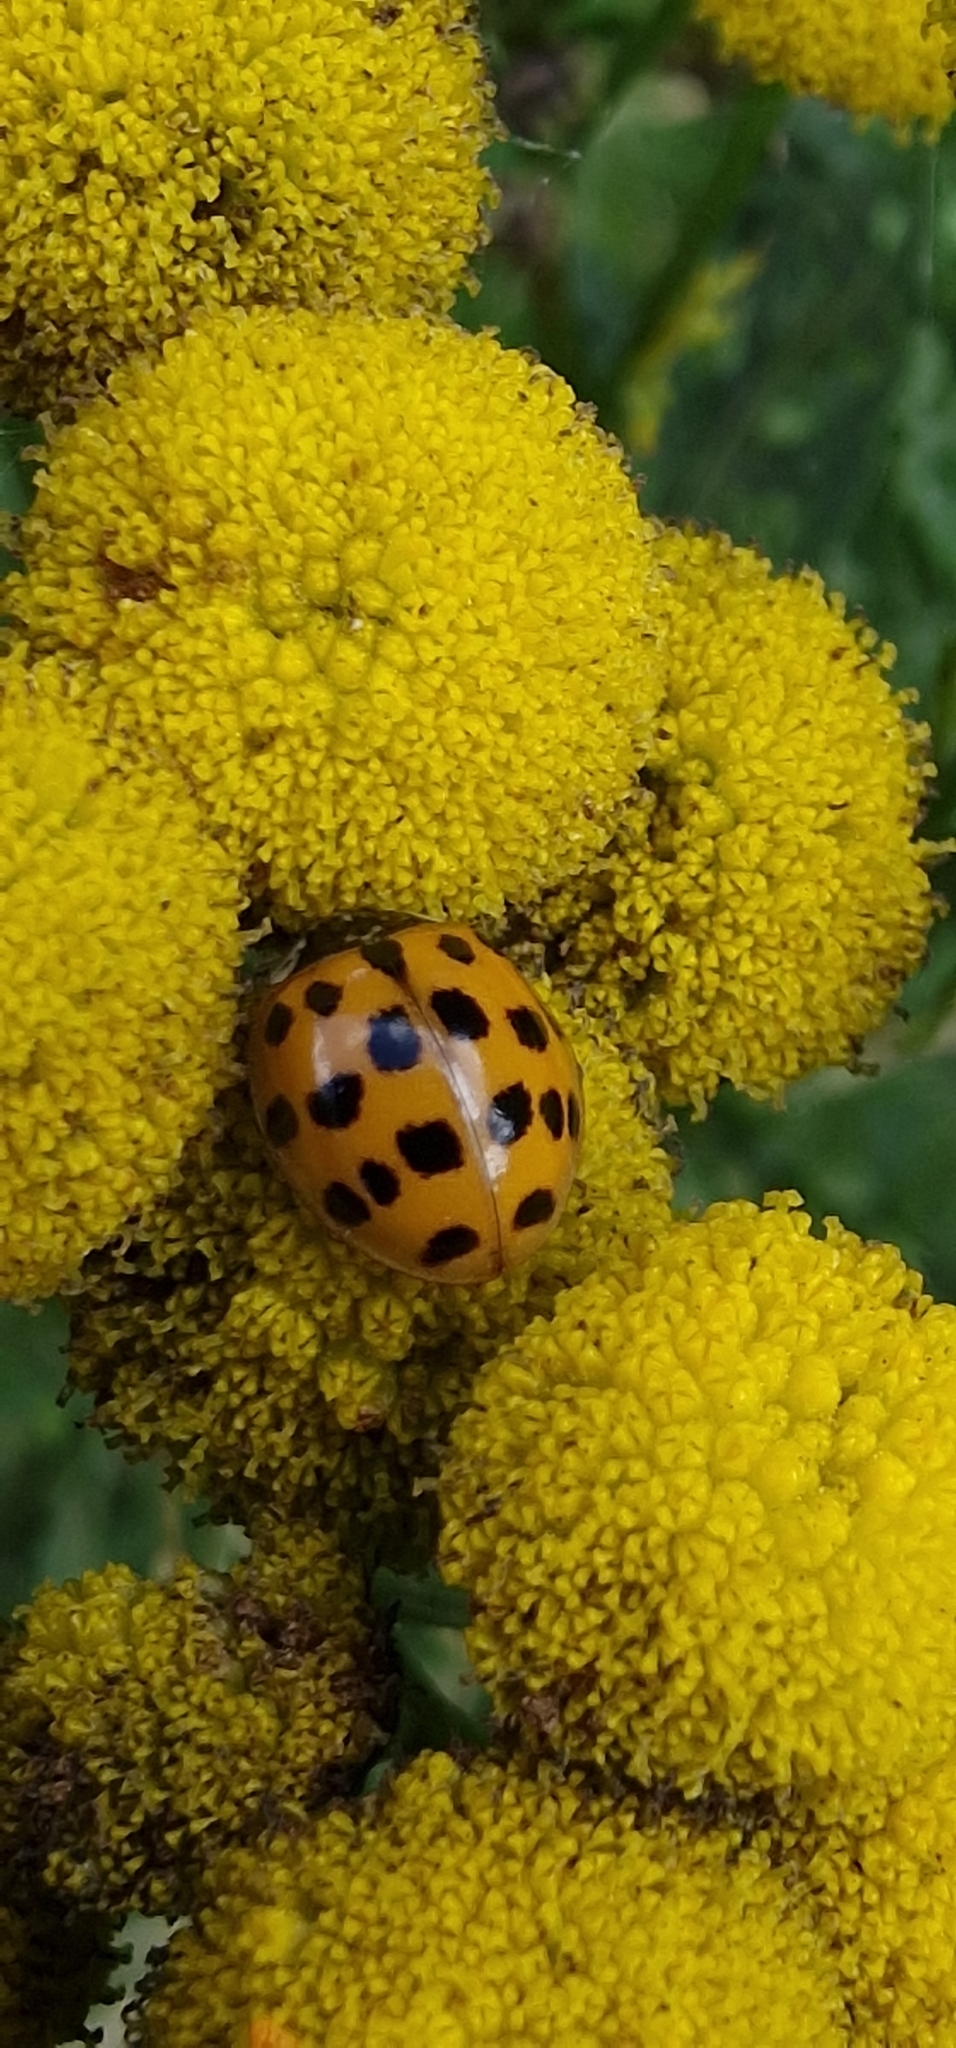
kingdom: Animalia
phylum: Arthropoda
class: Insecta
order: Coleoptera
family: Coccinellidae
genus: Harmonia
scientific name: Harmonia axyridis
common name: Harlequin ladybird
